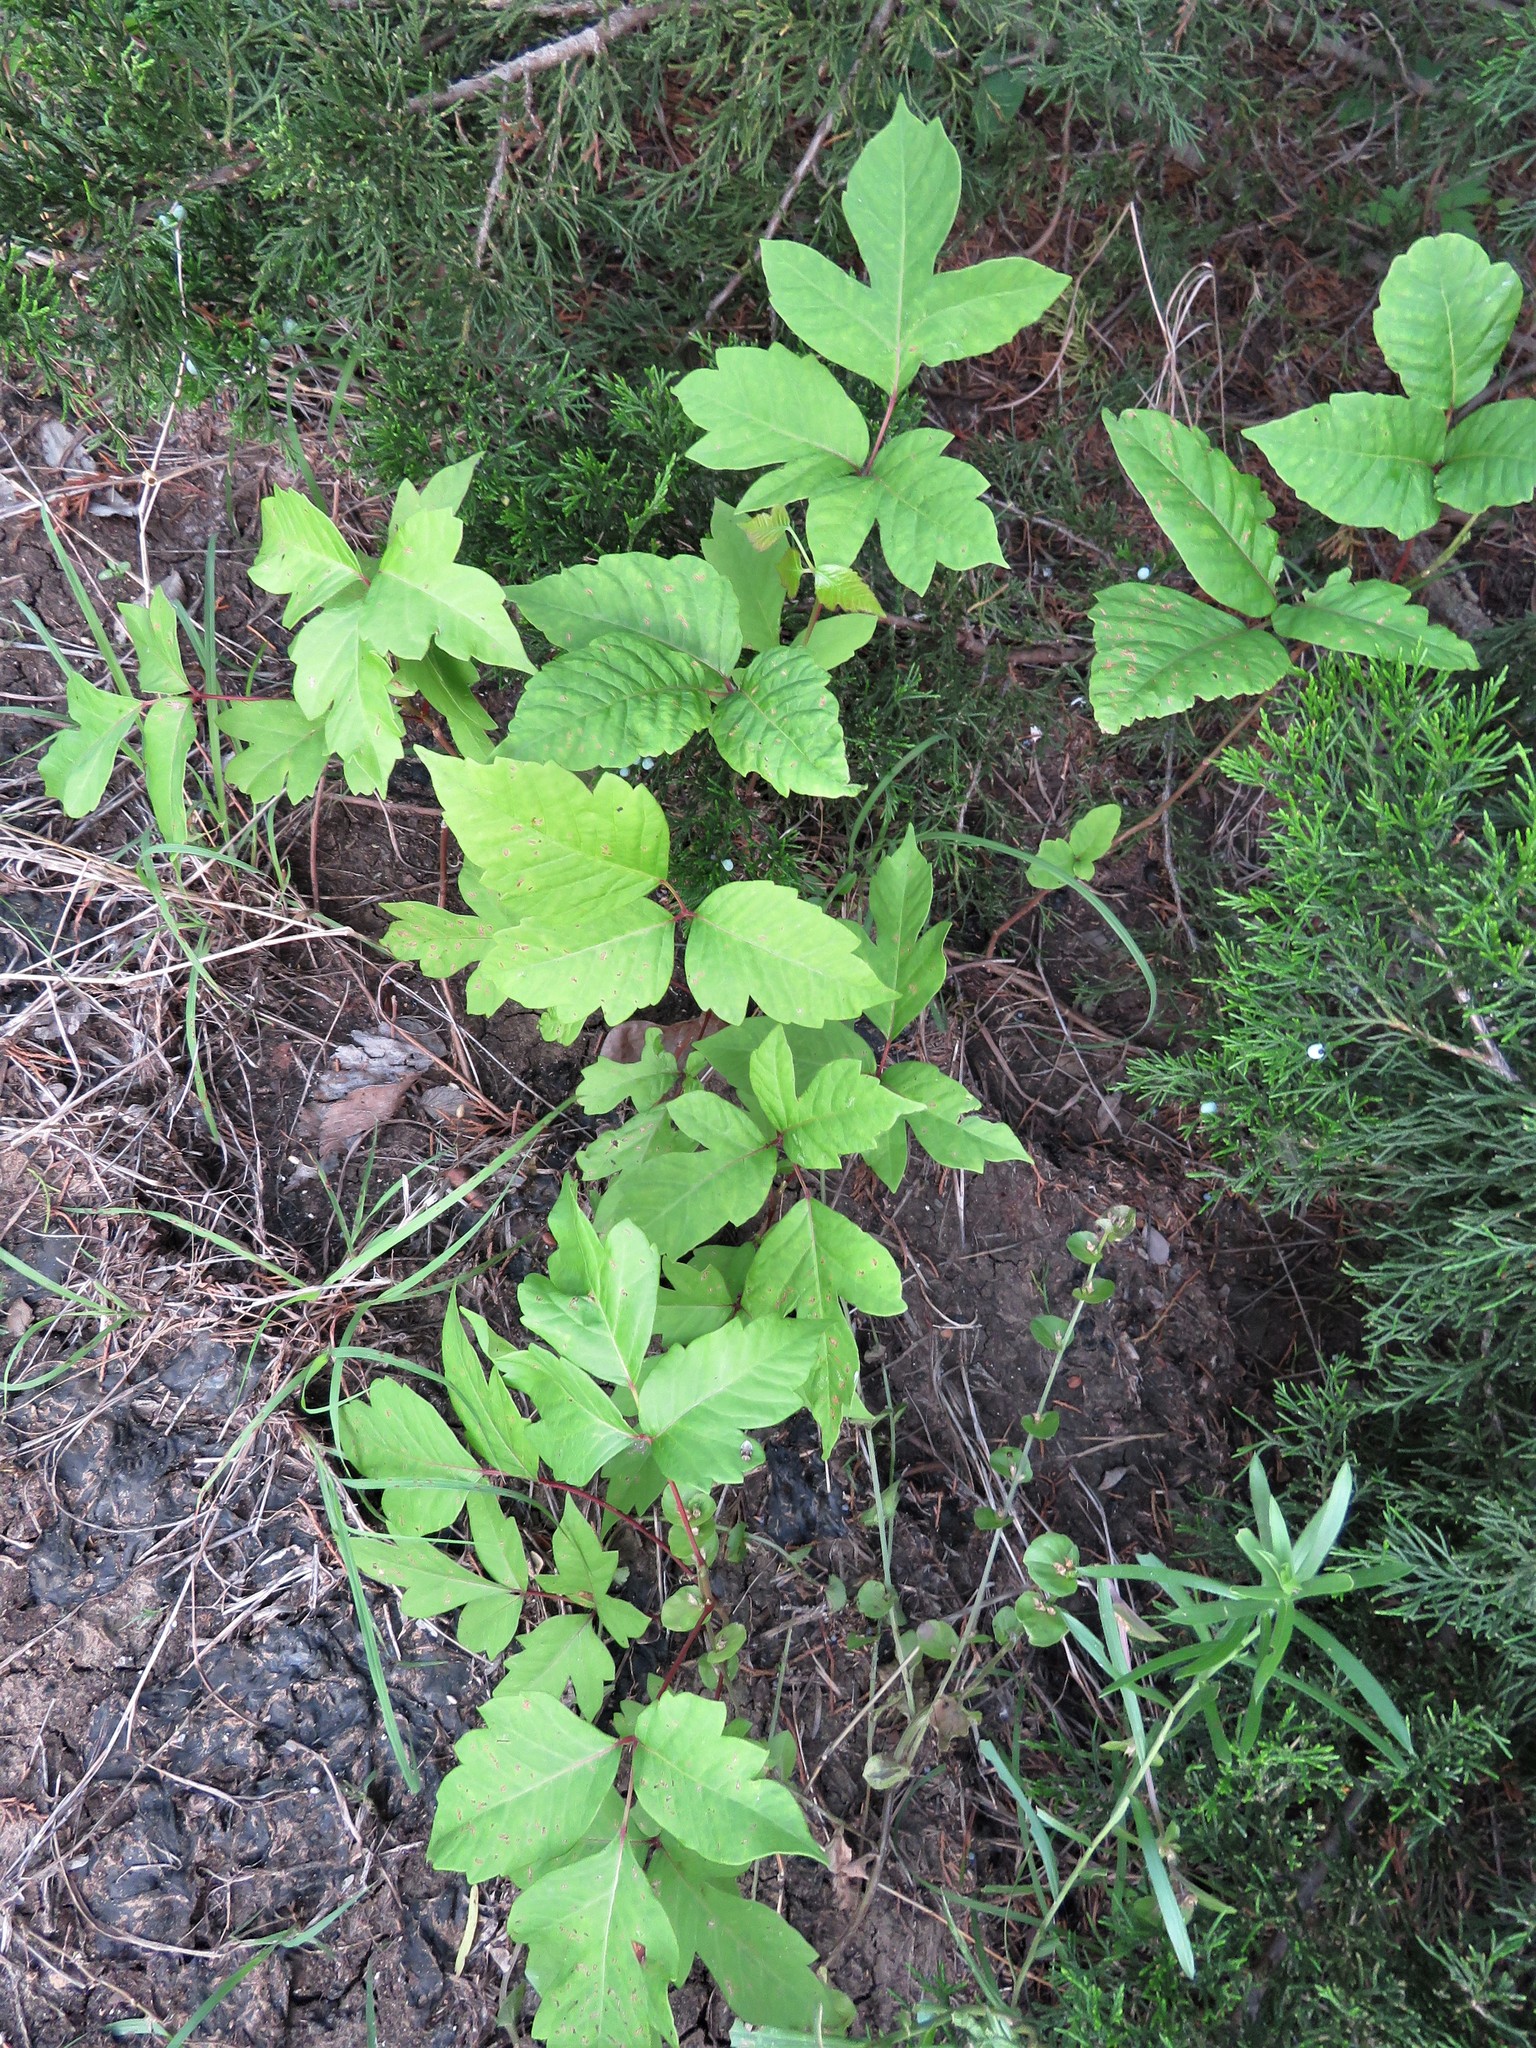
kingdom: Plantae
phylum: Tracheophyta
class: Magnoliopsida
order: Sapindales
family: Anacardiaceae
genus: Toxicodendron
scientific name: Toxicodendron radicans
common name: Poison ivy
